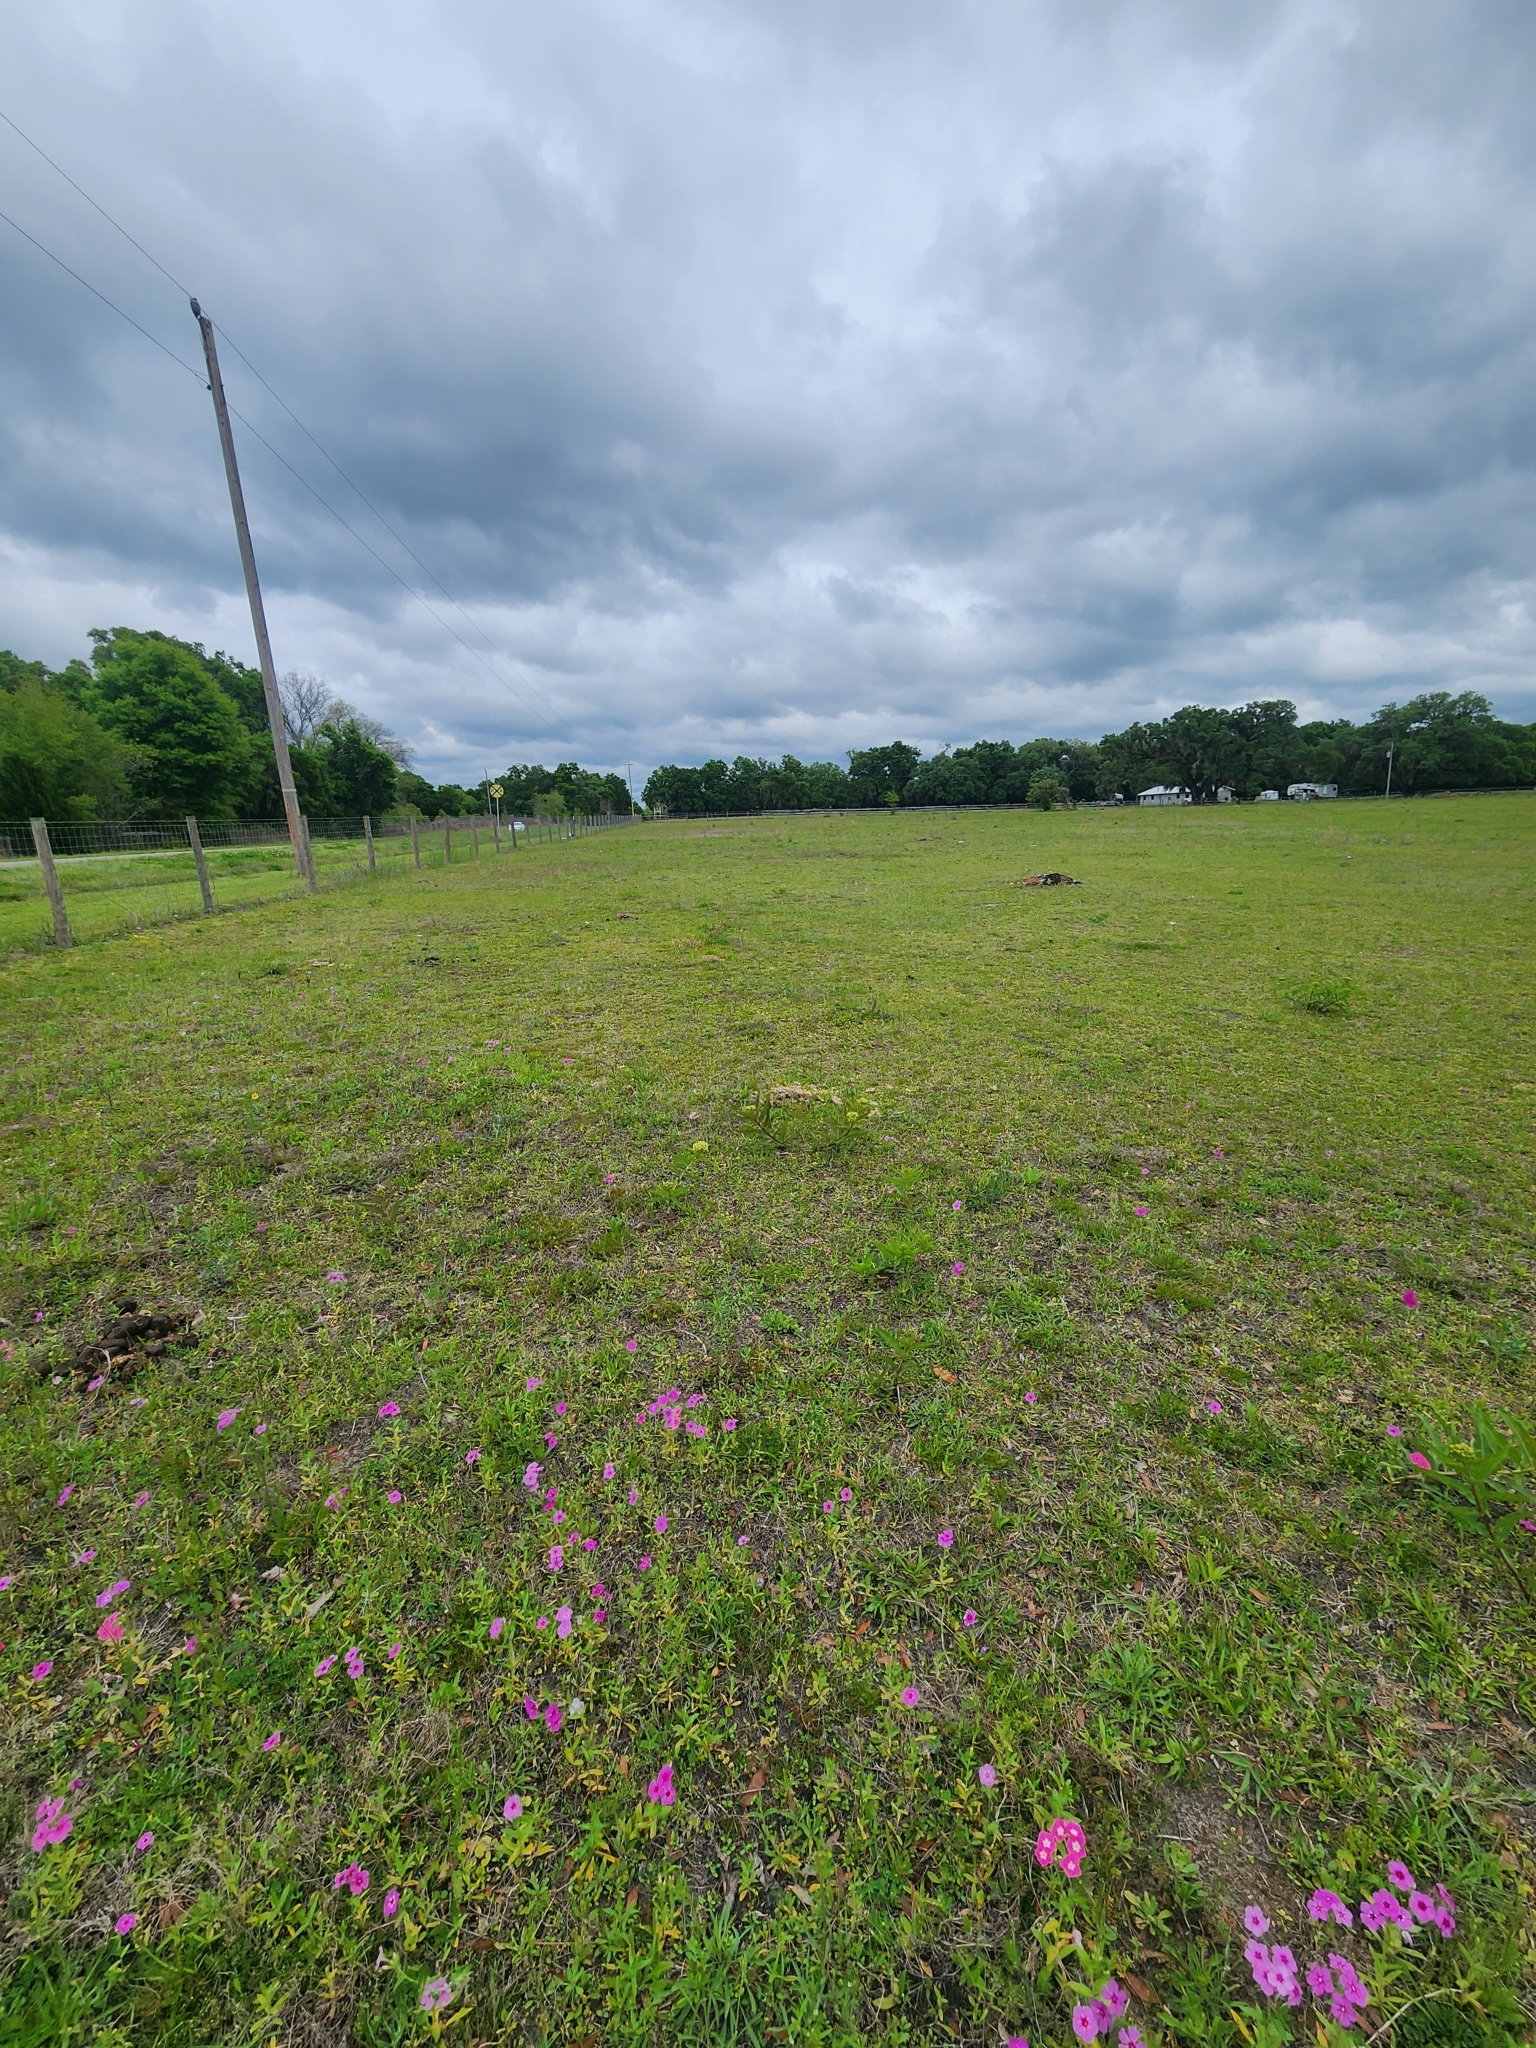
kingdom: Plantae
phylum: Tracheophyta
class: Magnoliopsida
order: Gentianales
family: Apocynaceae
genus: Asclepias
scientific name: Asclepias viridis
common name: Antelope-horns
